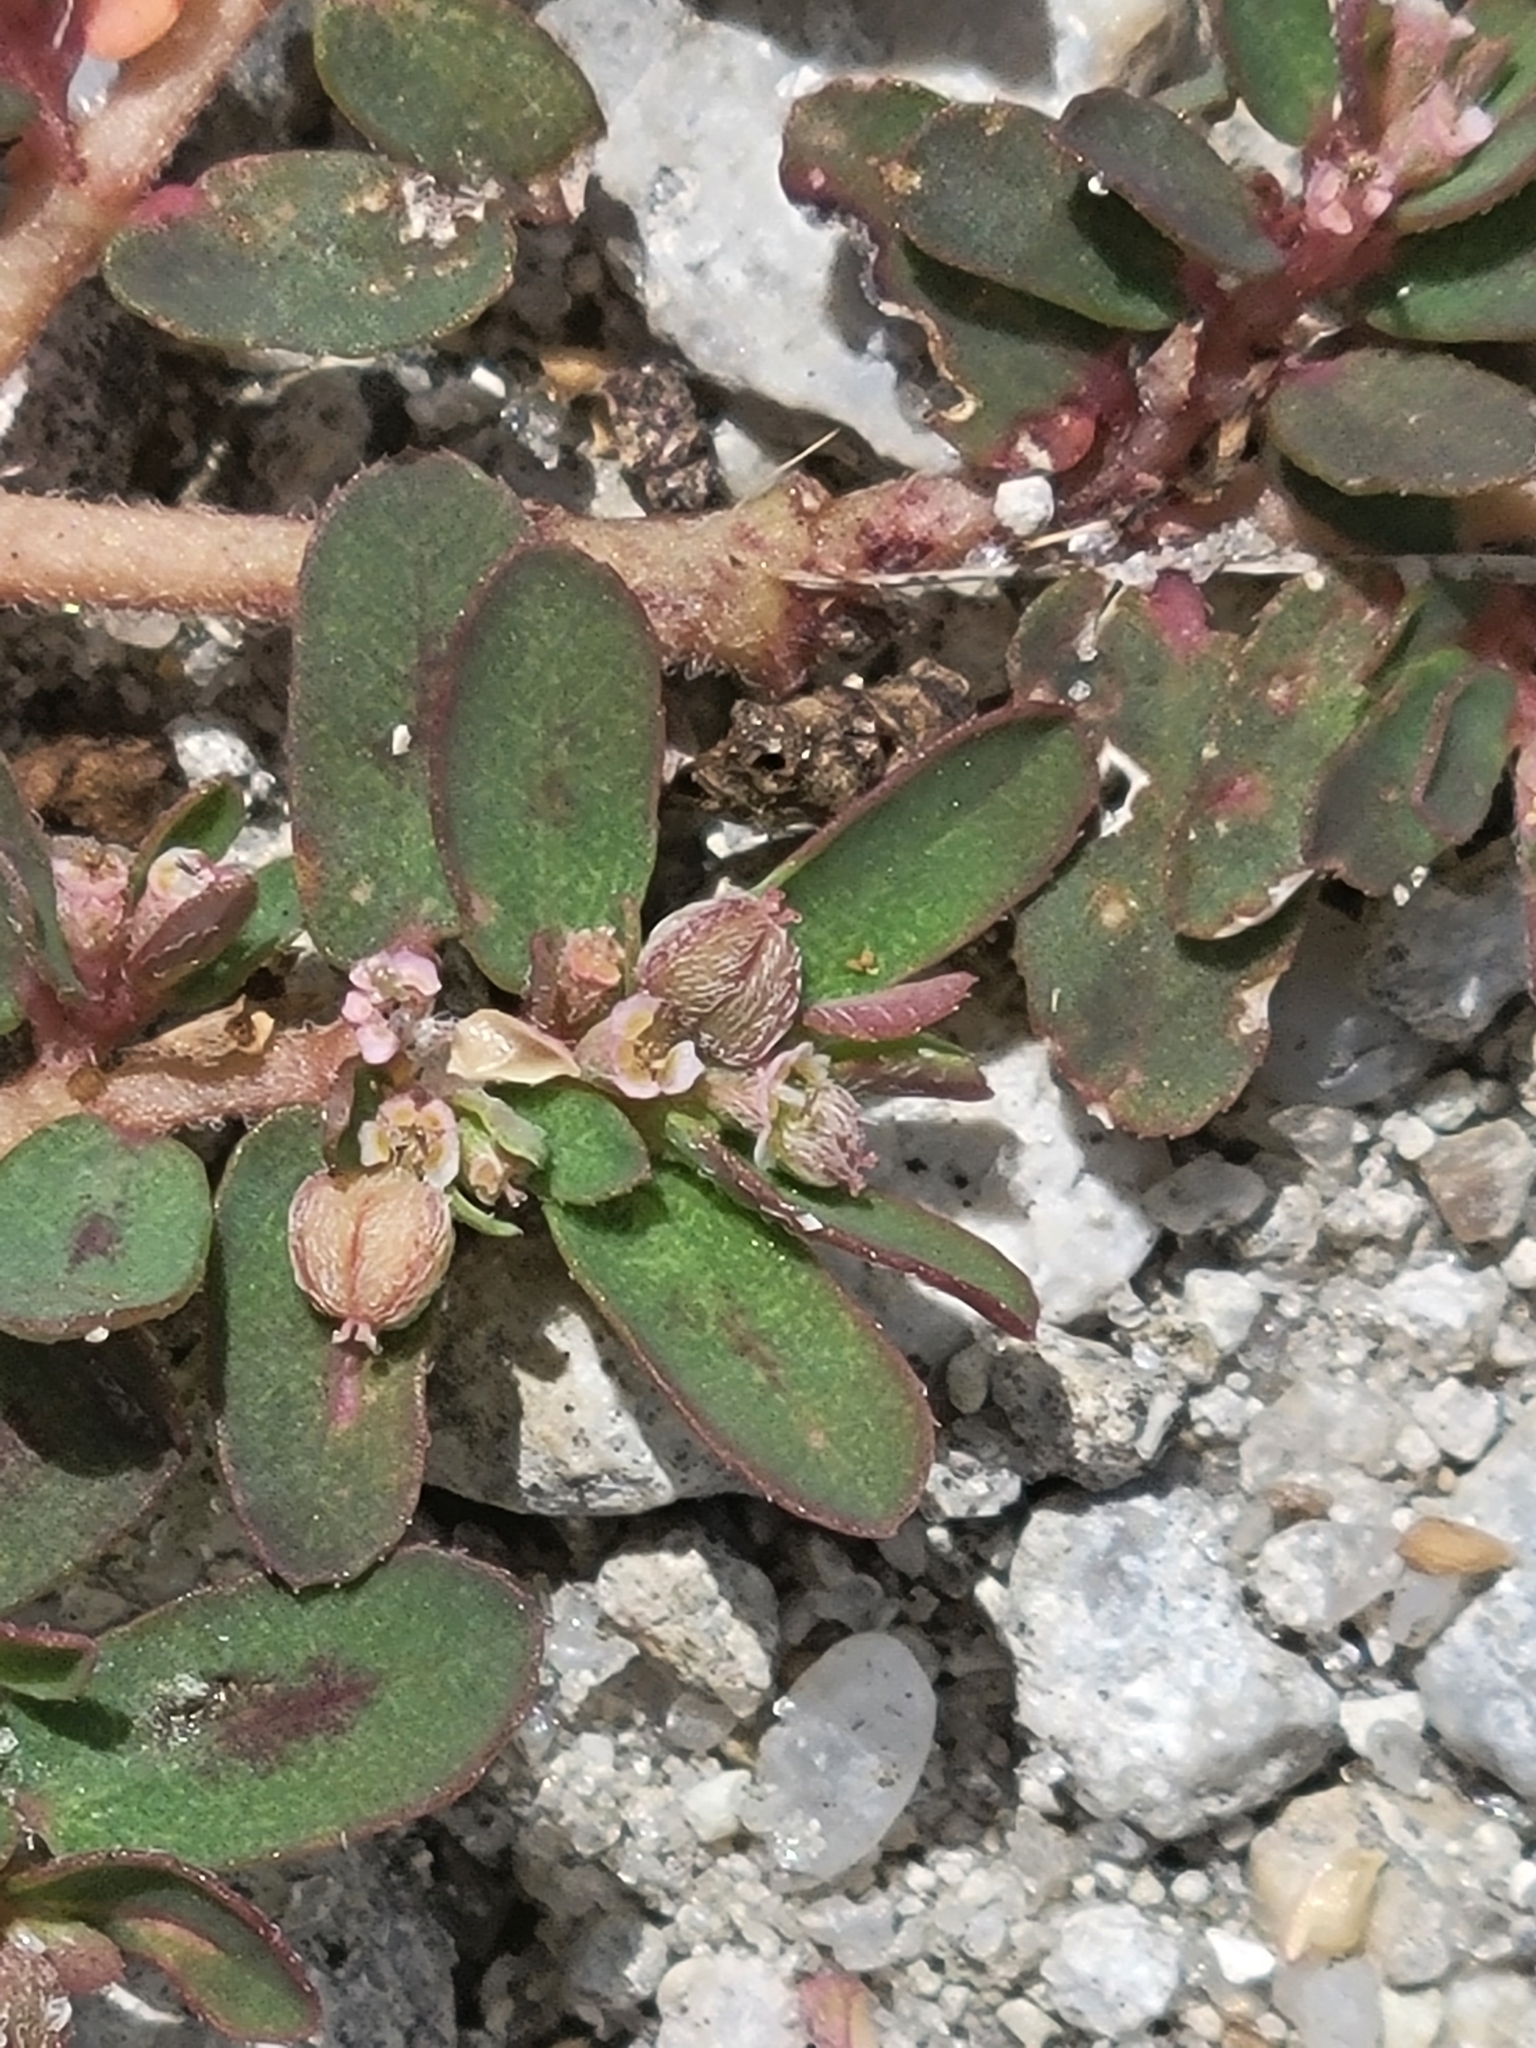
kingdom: Plantae
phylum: Tracheophyta
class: Magnoliopsida
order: Malpighiales
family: Euphorbiaceae
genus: Euphorbia
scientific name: Euphorbia maculata
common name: Spotted spurge
